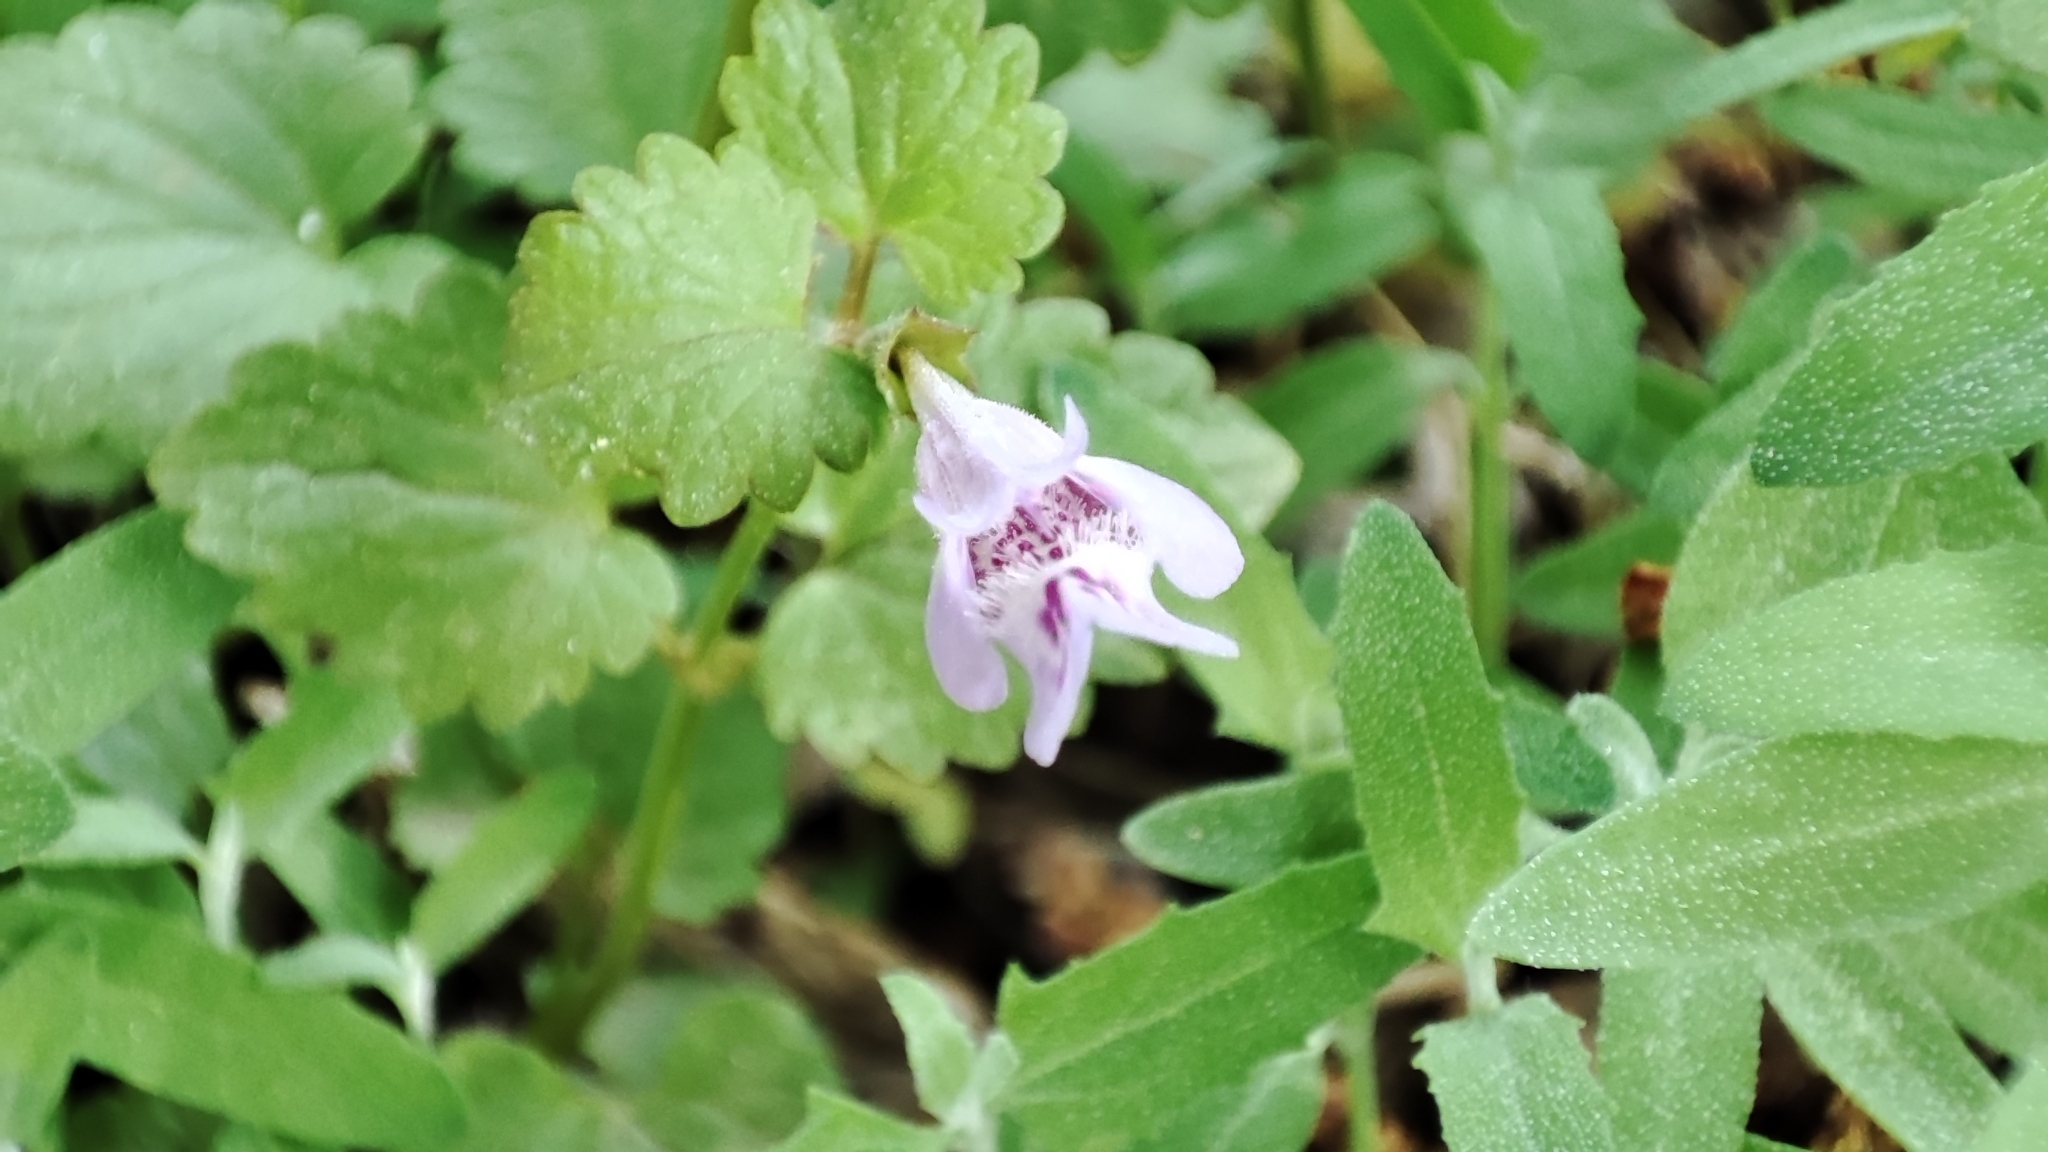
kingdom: Plantae
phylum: Tracheophyta
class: Magnoliopsida
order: Lamiales
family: Lamiaceae
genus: Glechoma
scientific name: Glechoma hederacea
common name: Ground ivy
